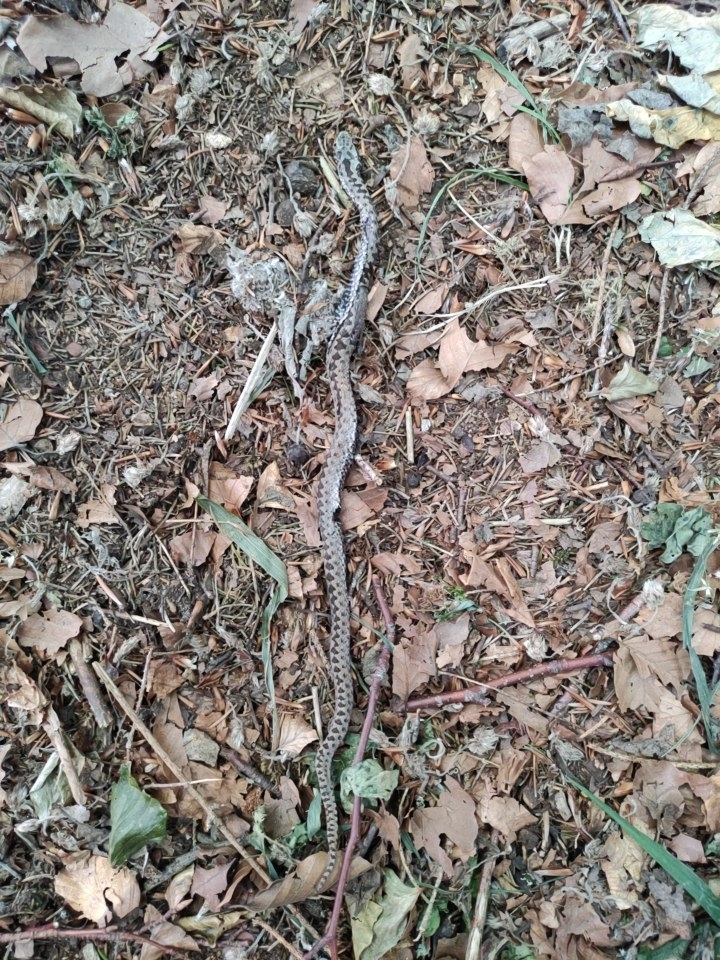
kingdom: Animalia
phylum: Chordata
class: Squamata
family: Viperidae
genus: Vipera
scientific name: Vipera berus
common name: Adder
